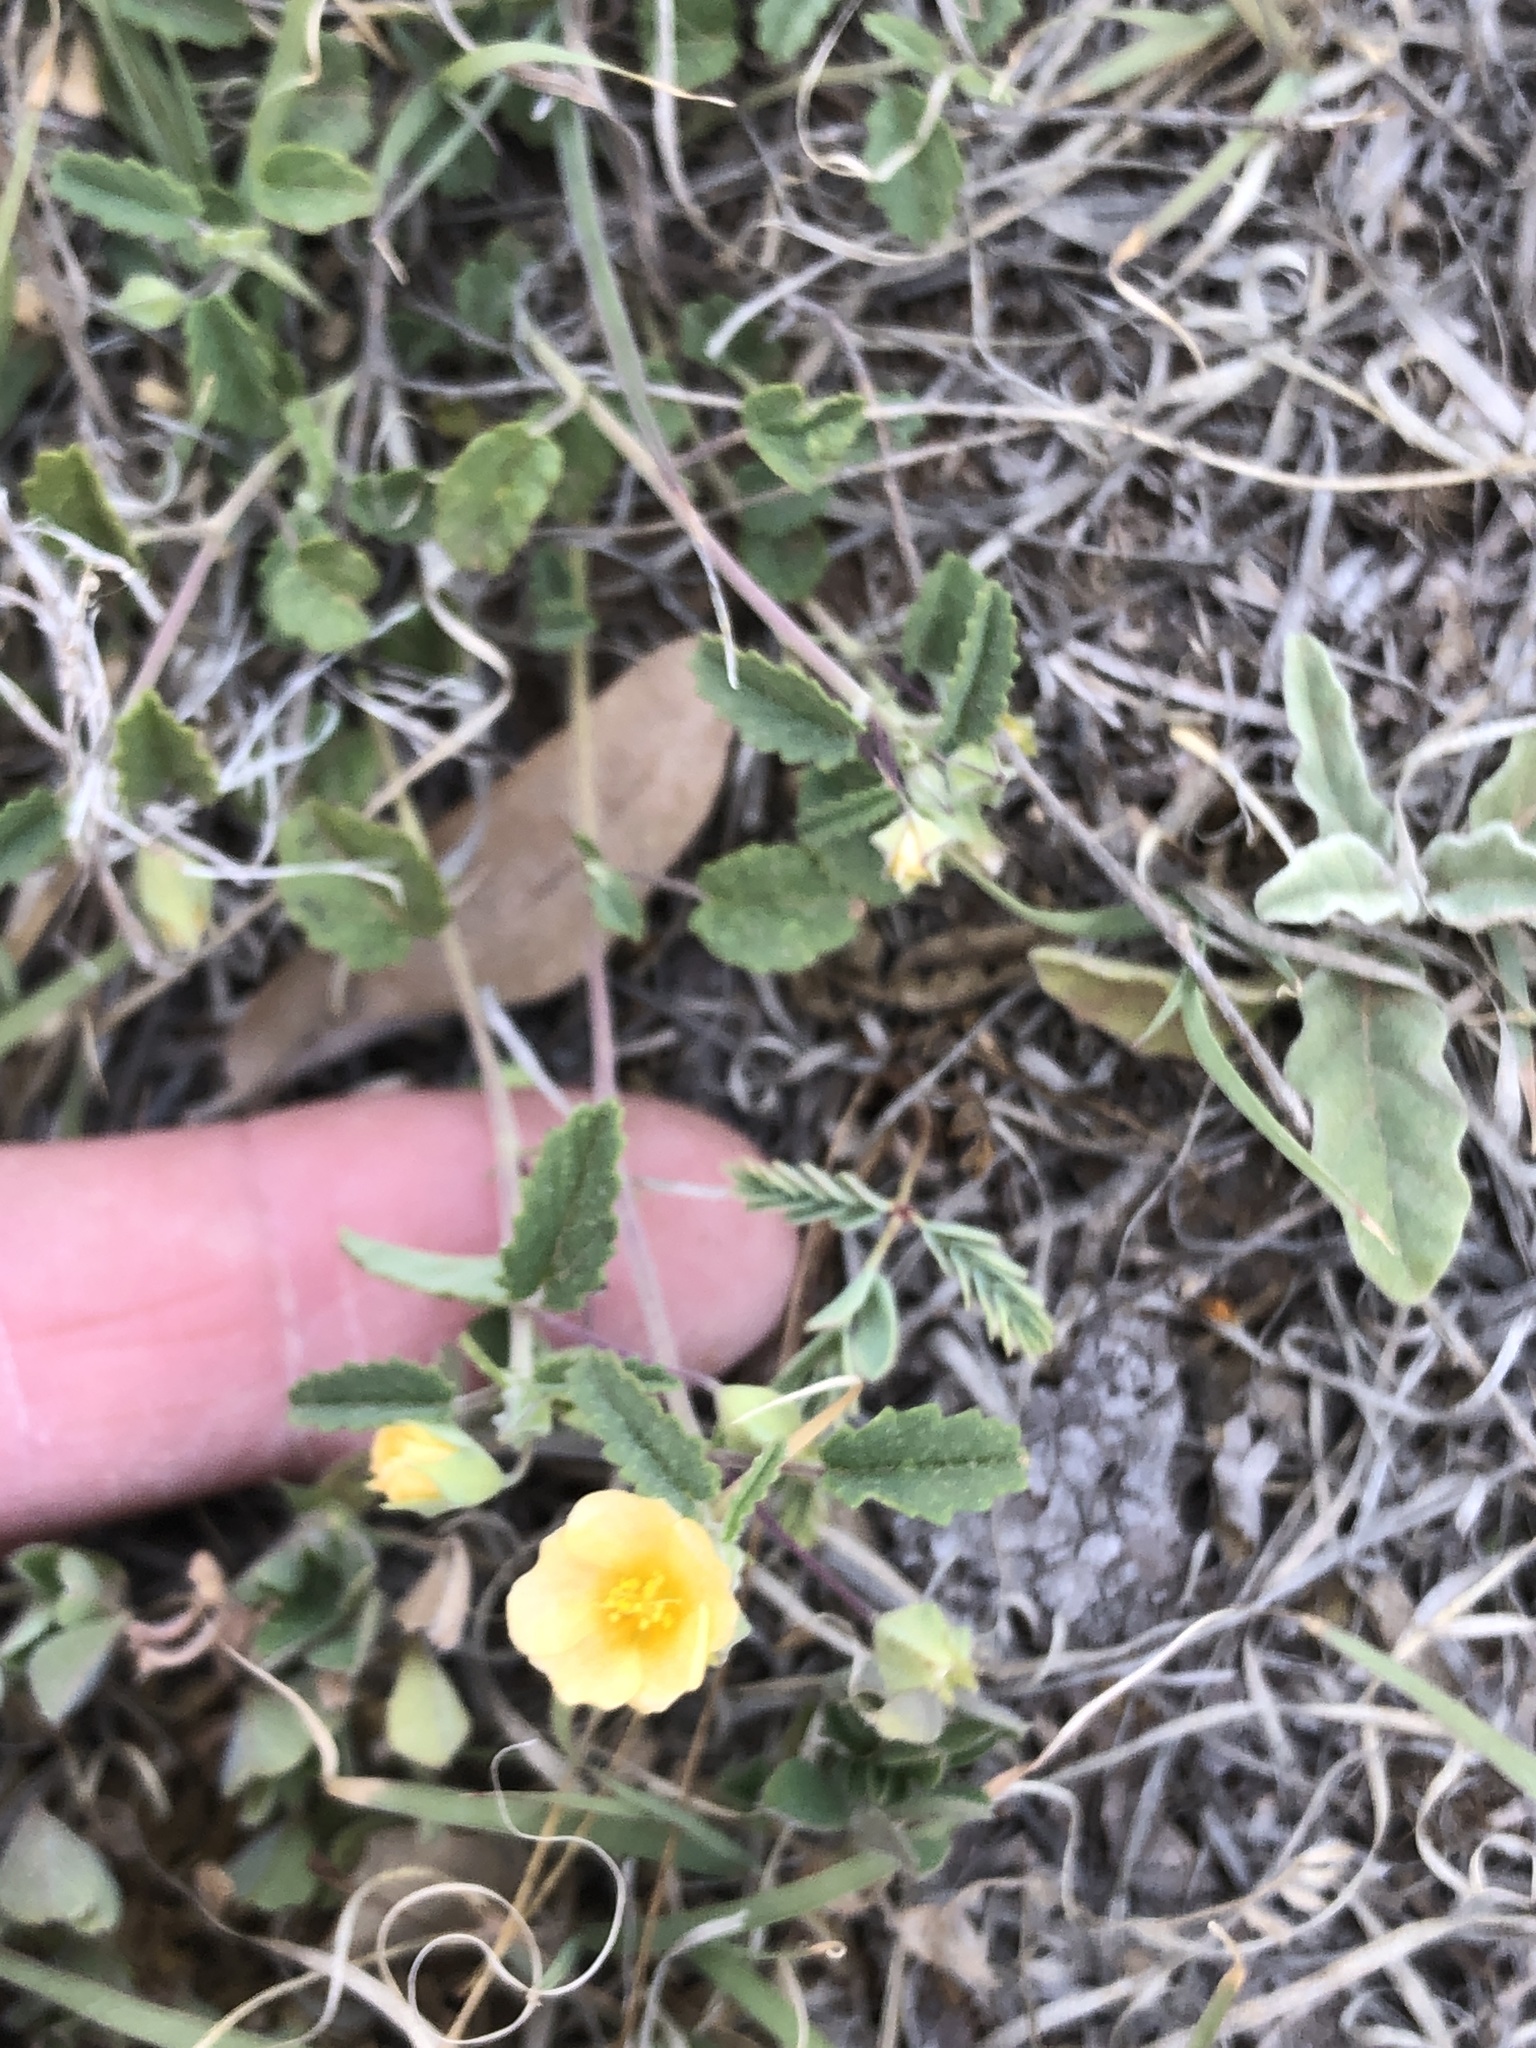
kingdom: Plantae
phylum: Tracheophyta
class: Magnoliopsida
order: Malvales
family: Malvaceae
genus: Sida
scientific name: Sida abutilifolia
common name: Spreading fanpetals
